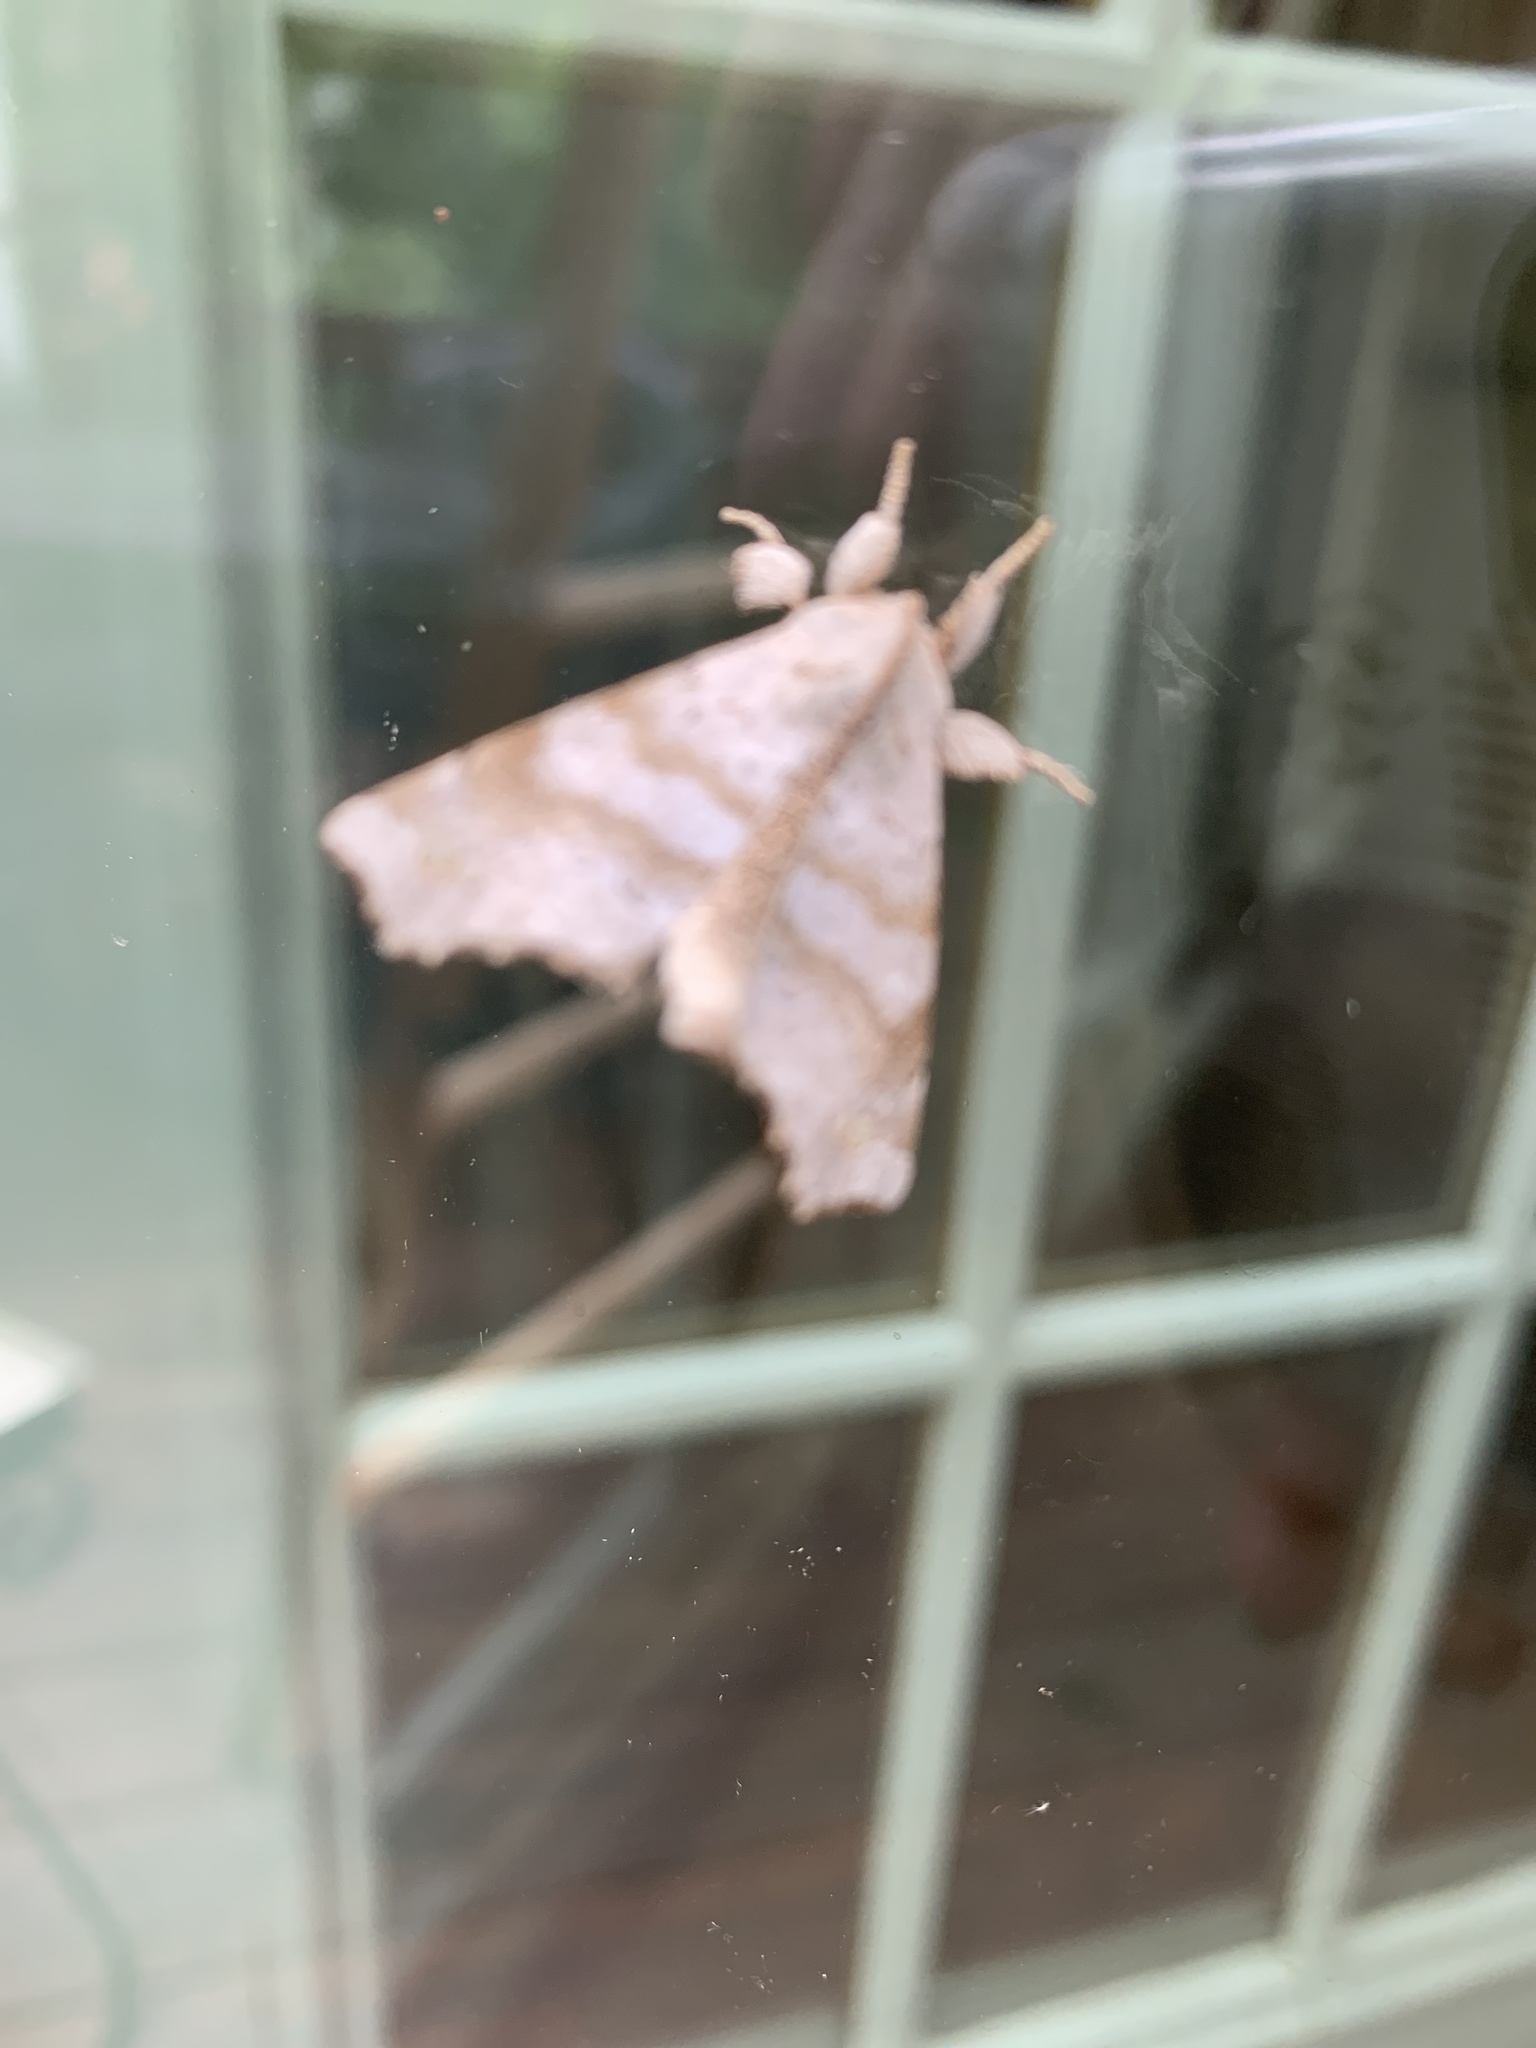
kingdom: Animalia
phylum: Arthropoda
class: Insecta
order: Lepidoptera
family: Apatelodidae
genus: Olceclostera
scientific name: Olceclostera angelica
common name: Angel moth
